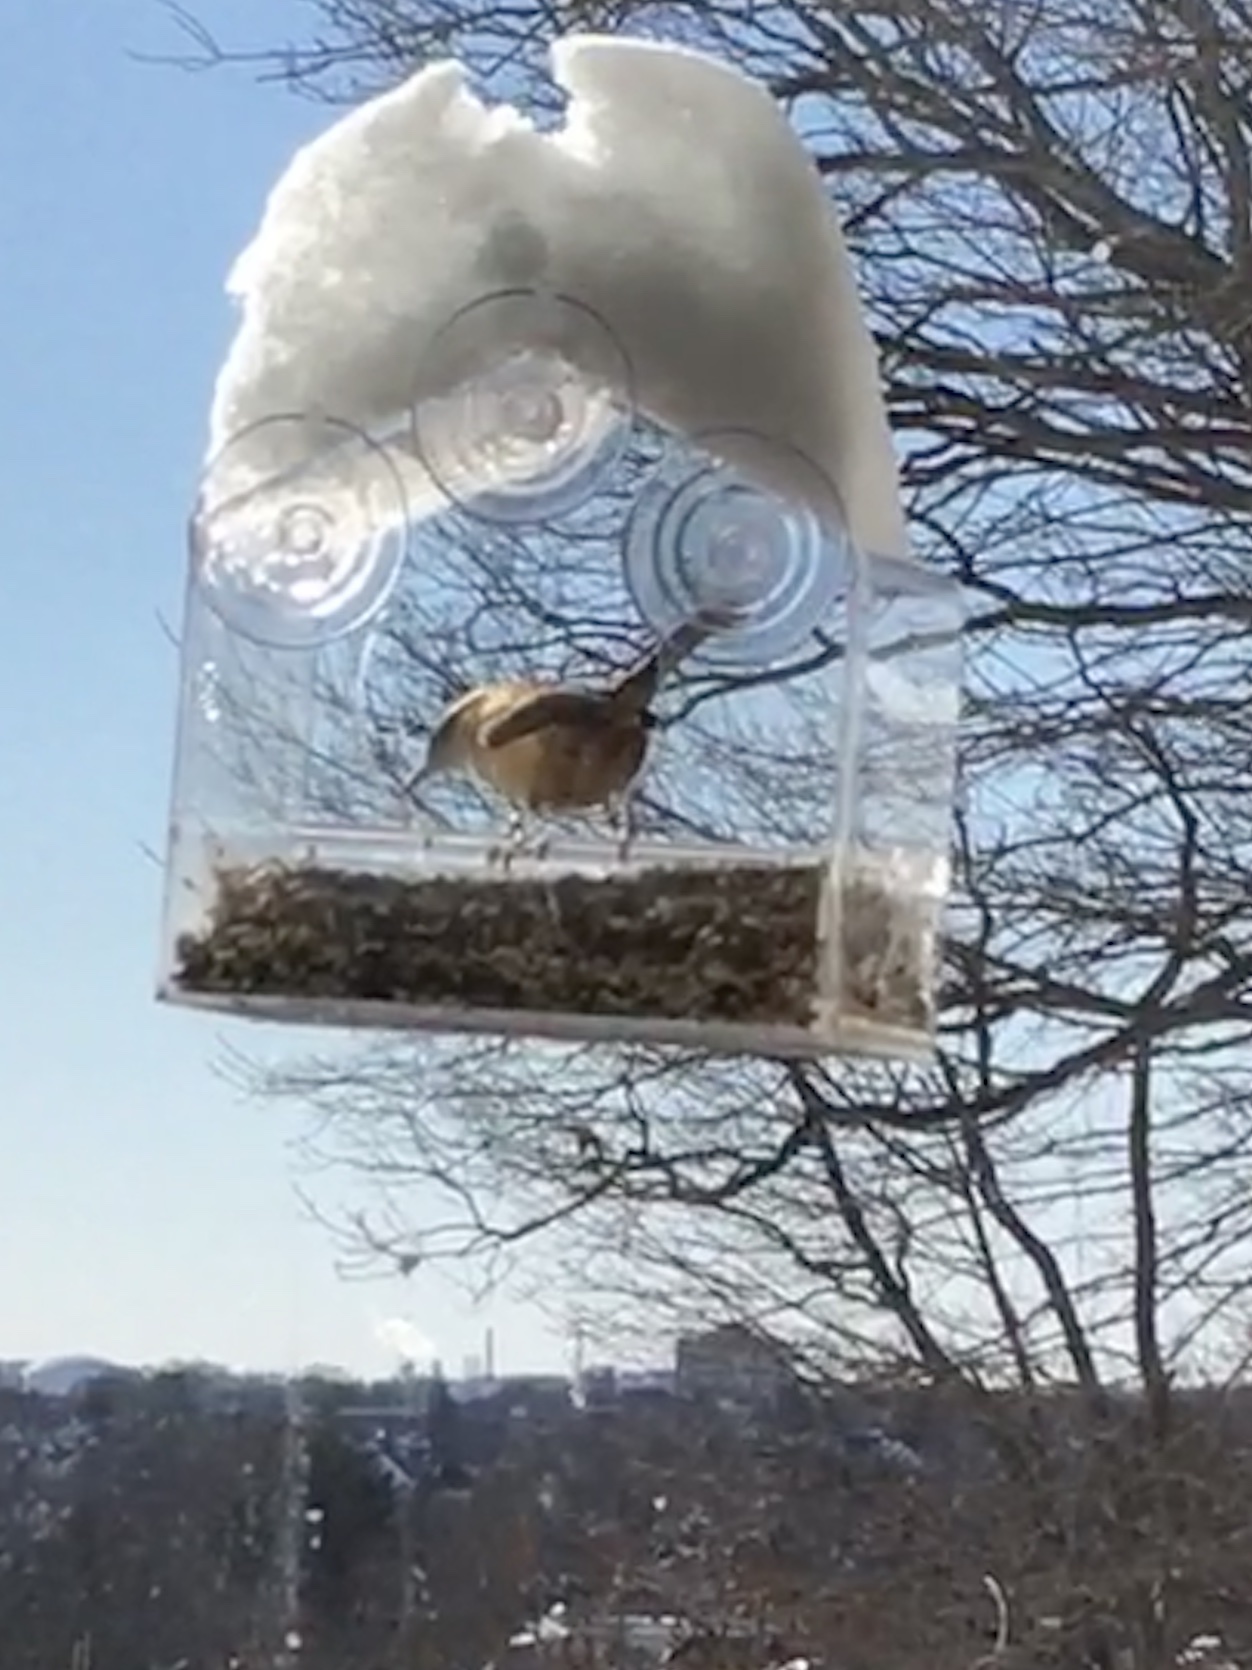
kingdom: Animalia
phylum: Chordata
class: Aves
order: Passeriformes
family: Troglodytidae
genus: Thryothorus
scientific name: Thryothorus ludovicianus
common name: Carolina wren
